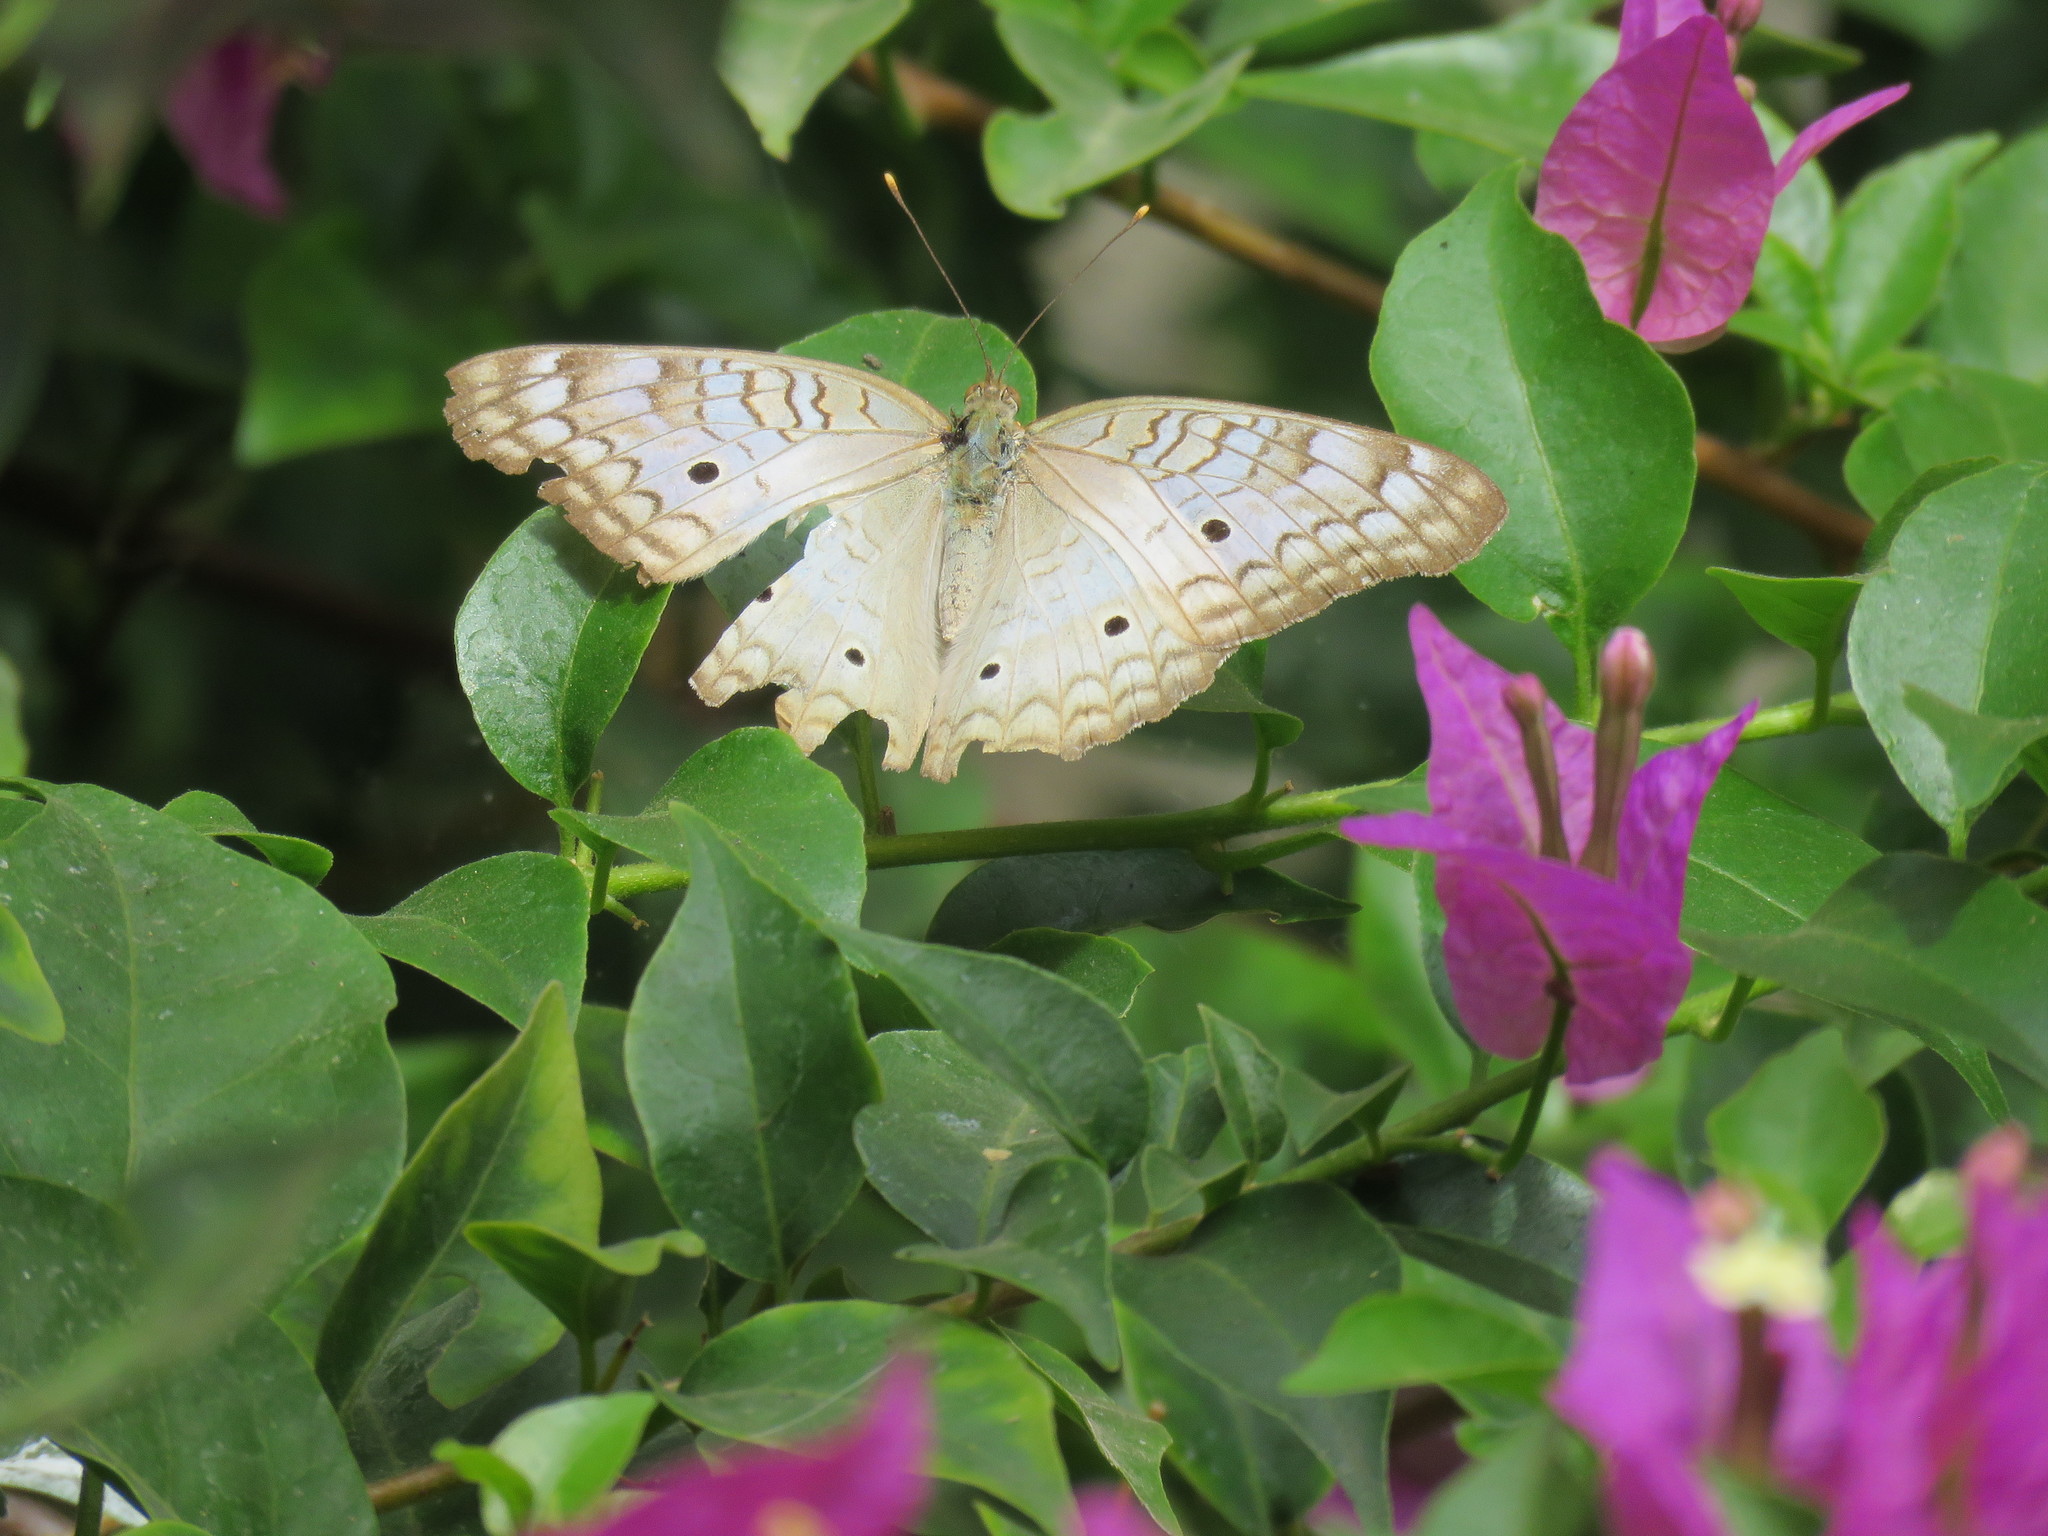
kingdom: Animalia
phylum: Arthropoda
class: Insecta
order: Lepidoptera
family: Nymphalidae
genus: Anartia
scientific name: Anartia jatrophae
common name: White peacock
